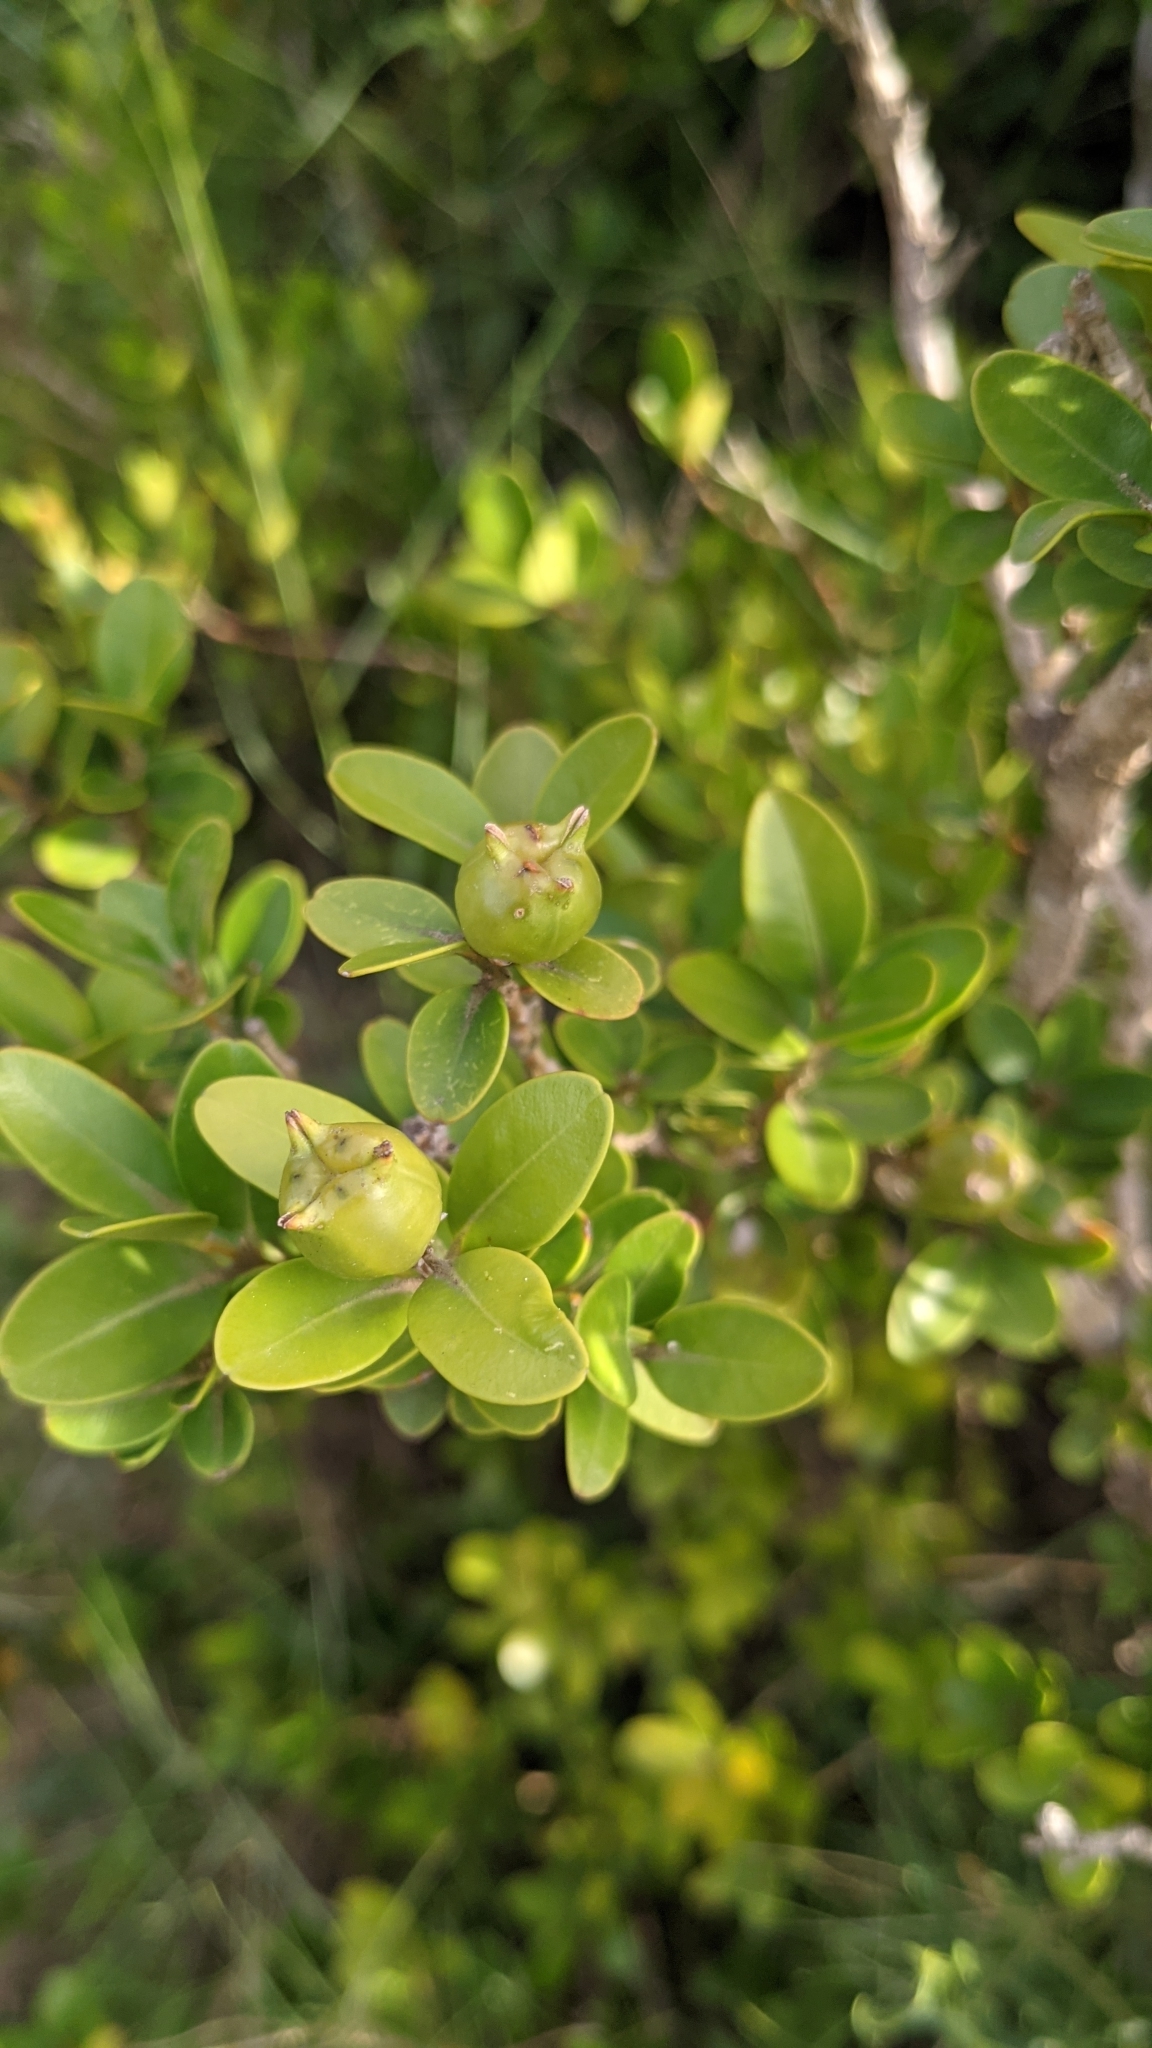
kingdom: Plantae
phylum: Tracheophyta
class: Magnoliopsida
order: Buxales
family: Buxaceae
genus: Buxus
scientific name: Buxus sempervirens
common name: Box
